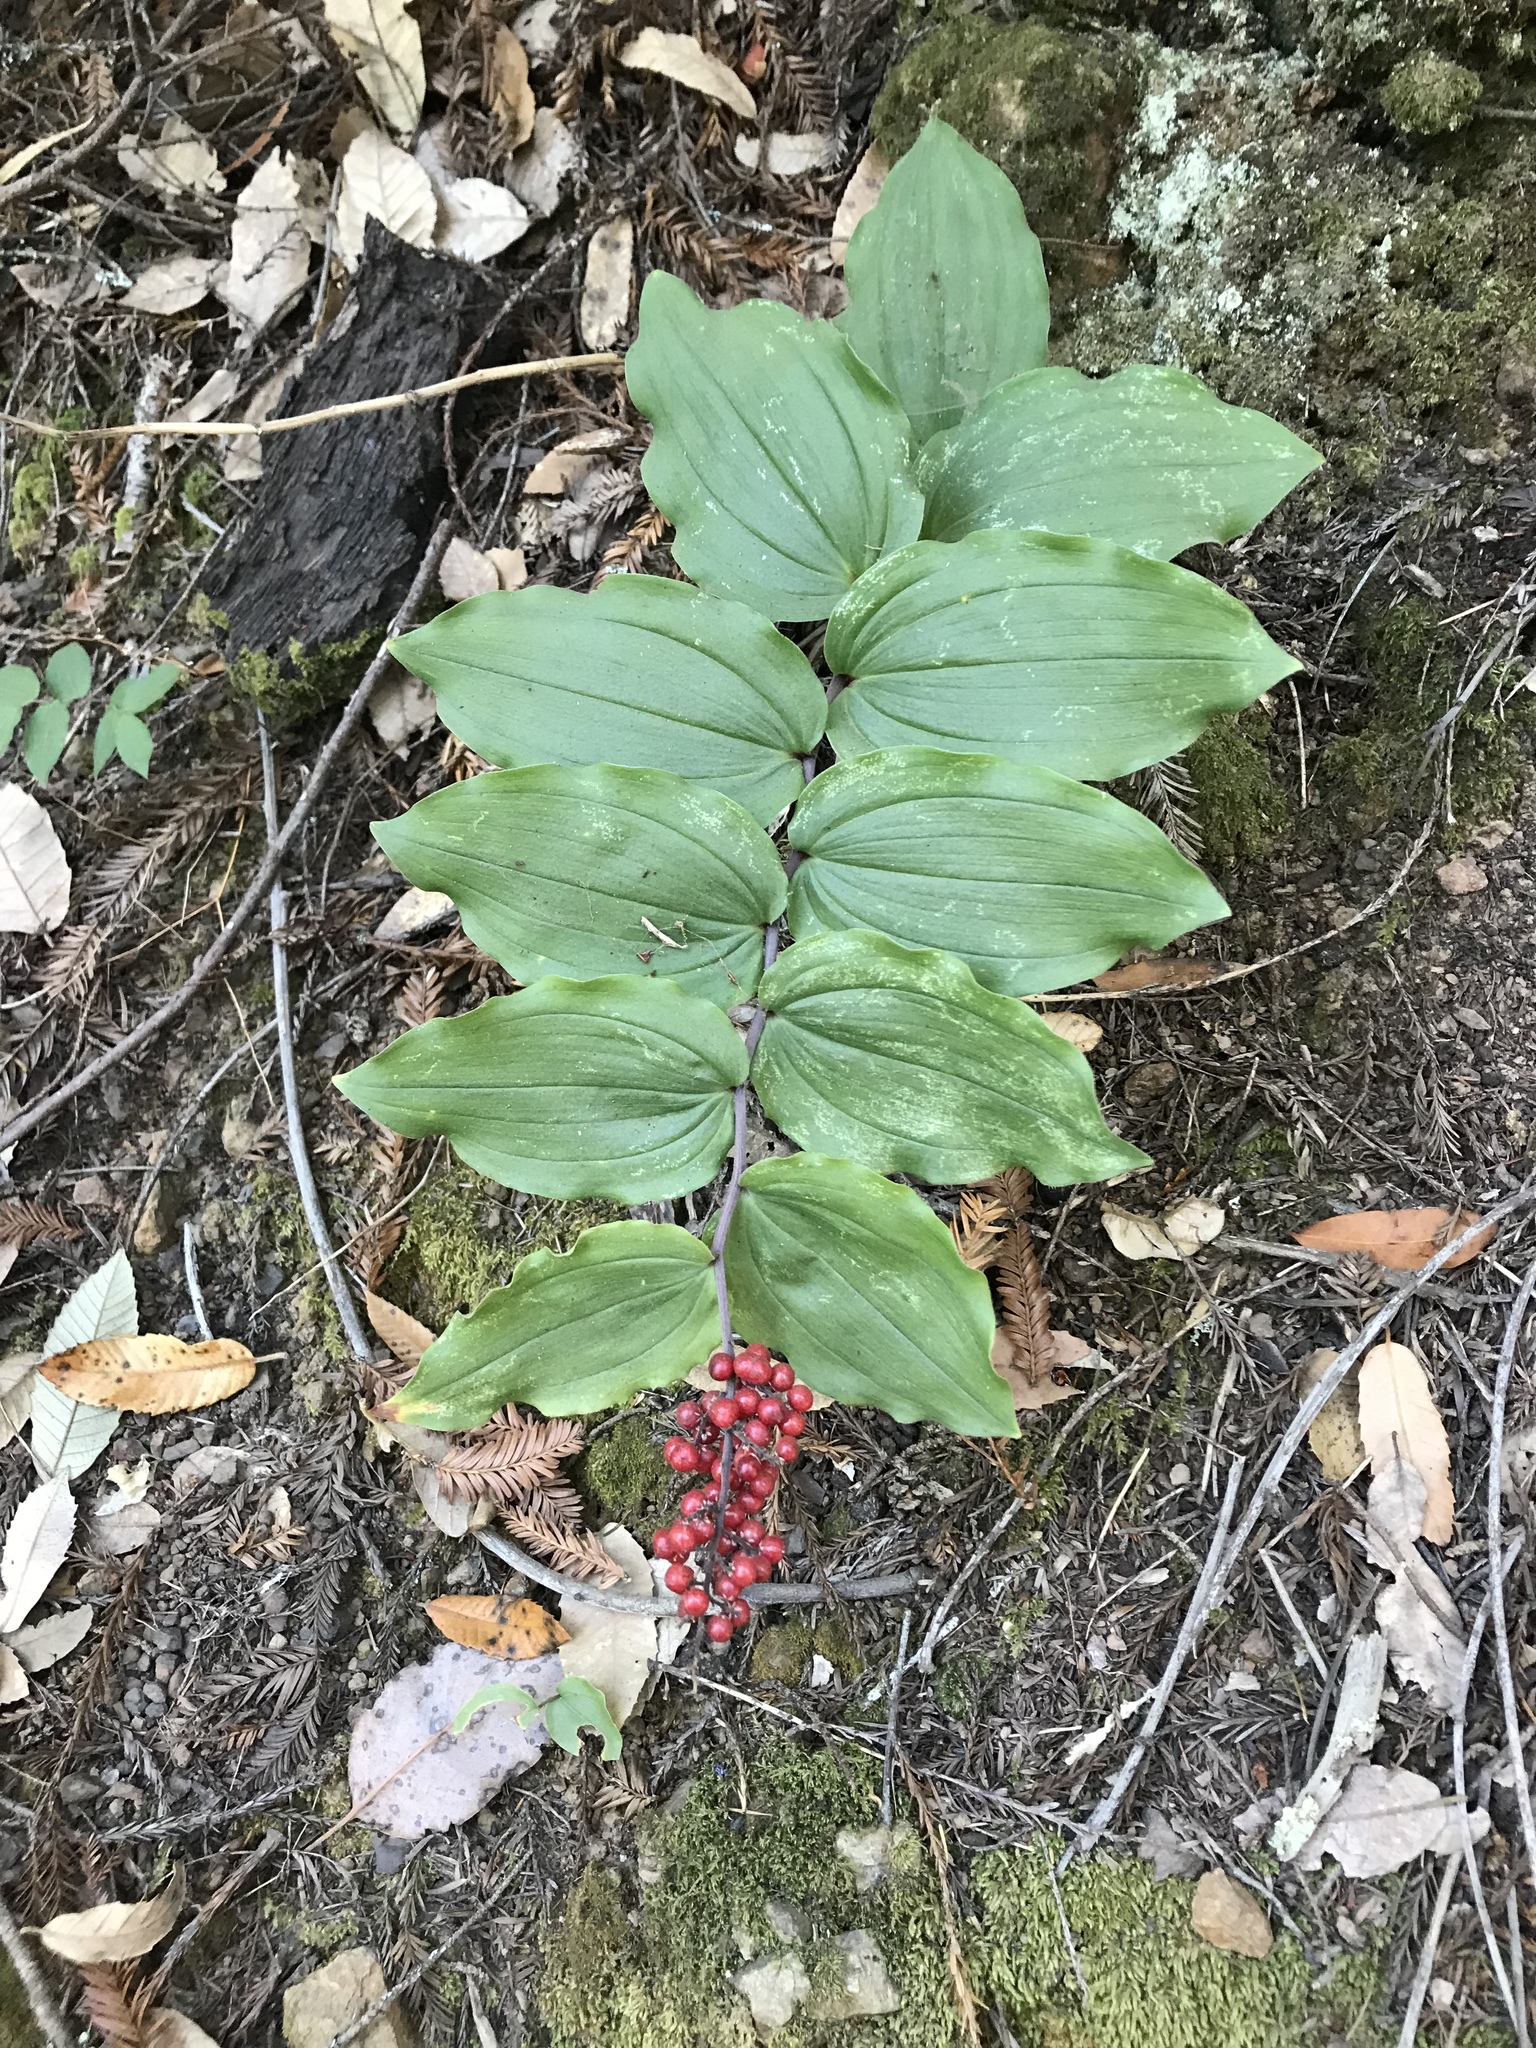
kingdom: Plantae
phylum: Tracheophyta
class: Liliopsida
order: Asparagales
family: Asparagaceae
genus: Maianthemum
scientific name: Maianthemum racemosum
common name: False spikenard
